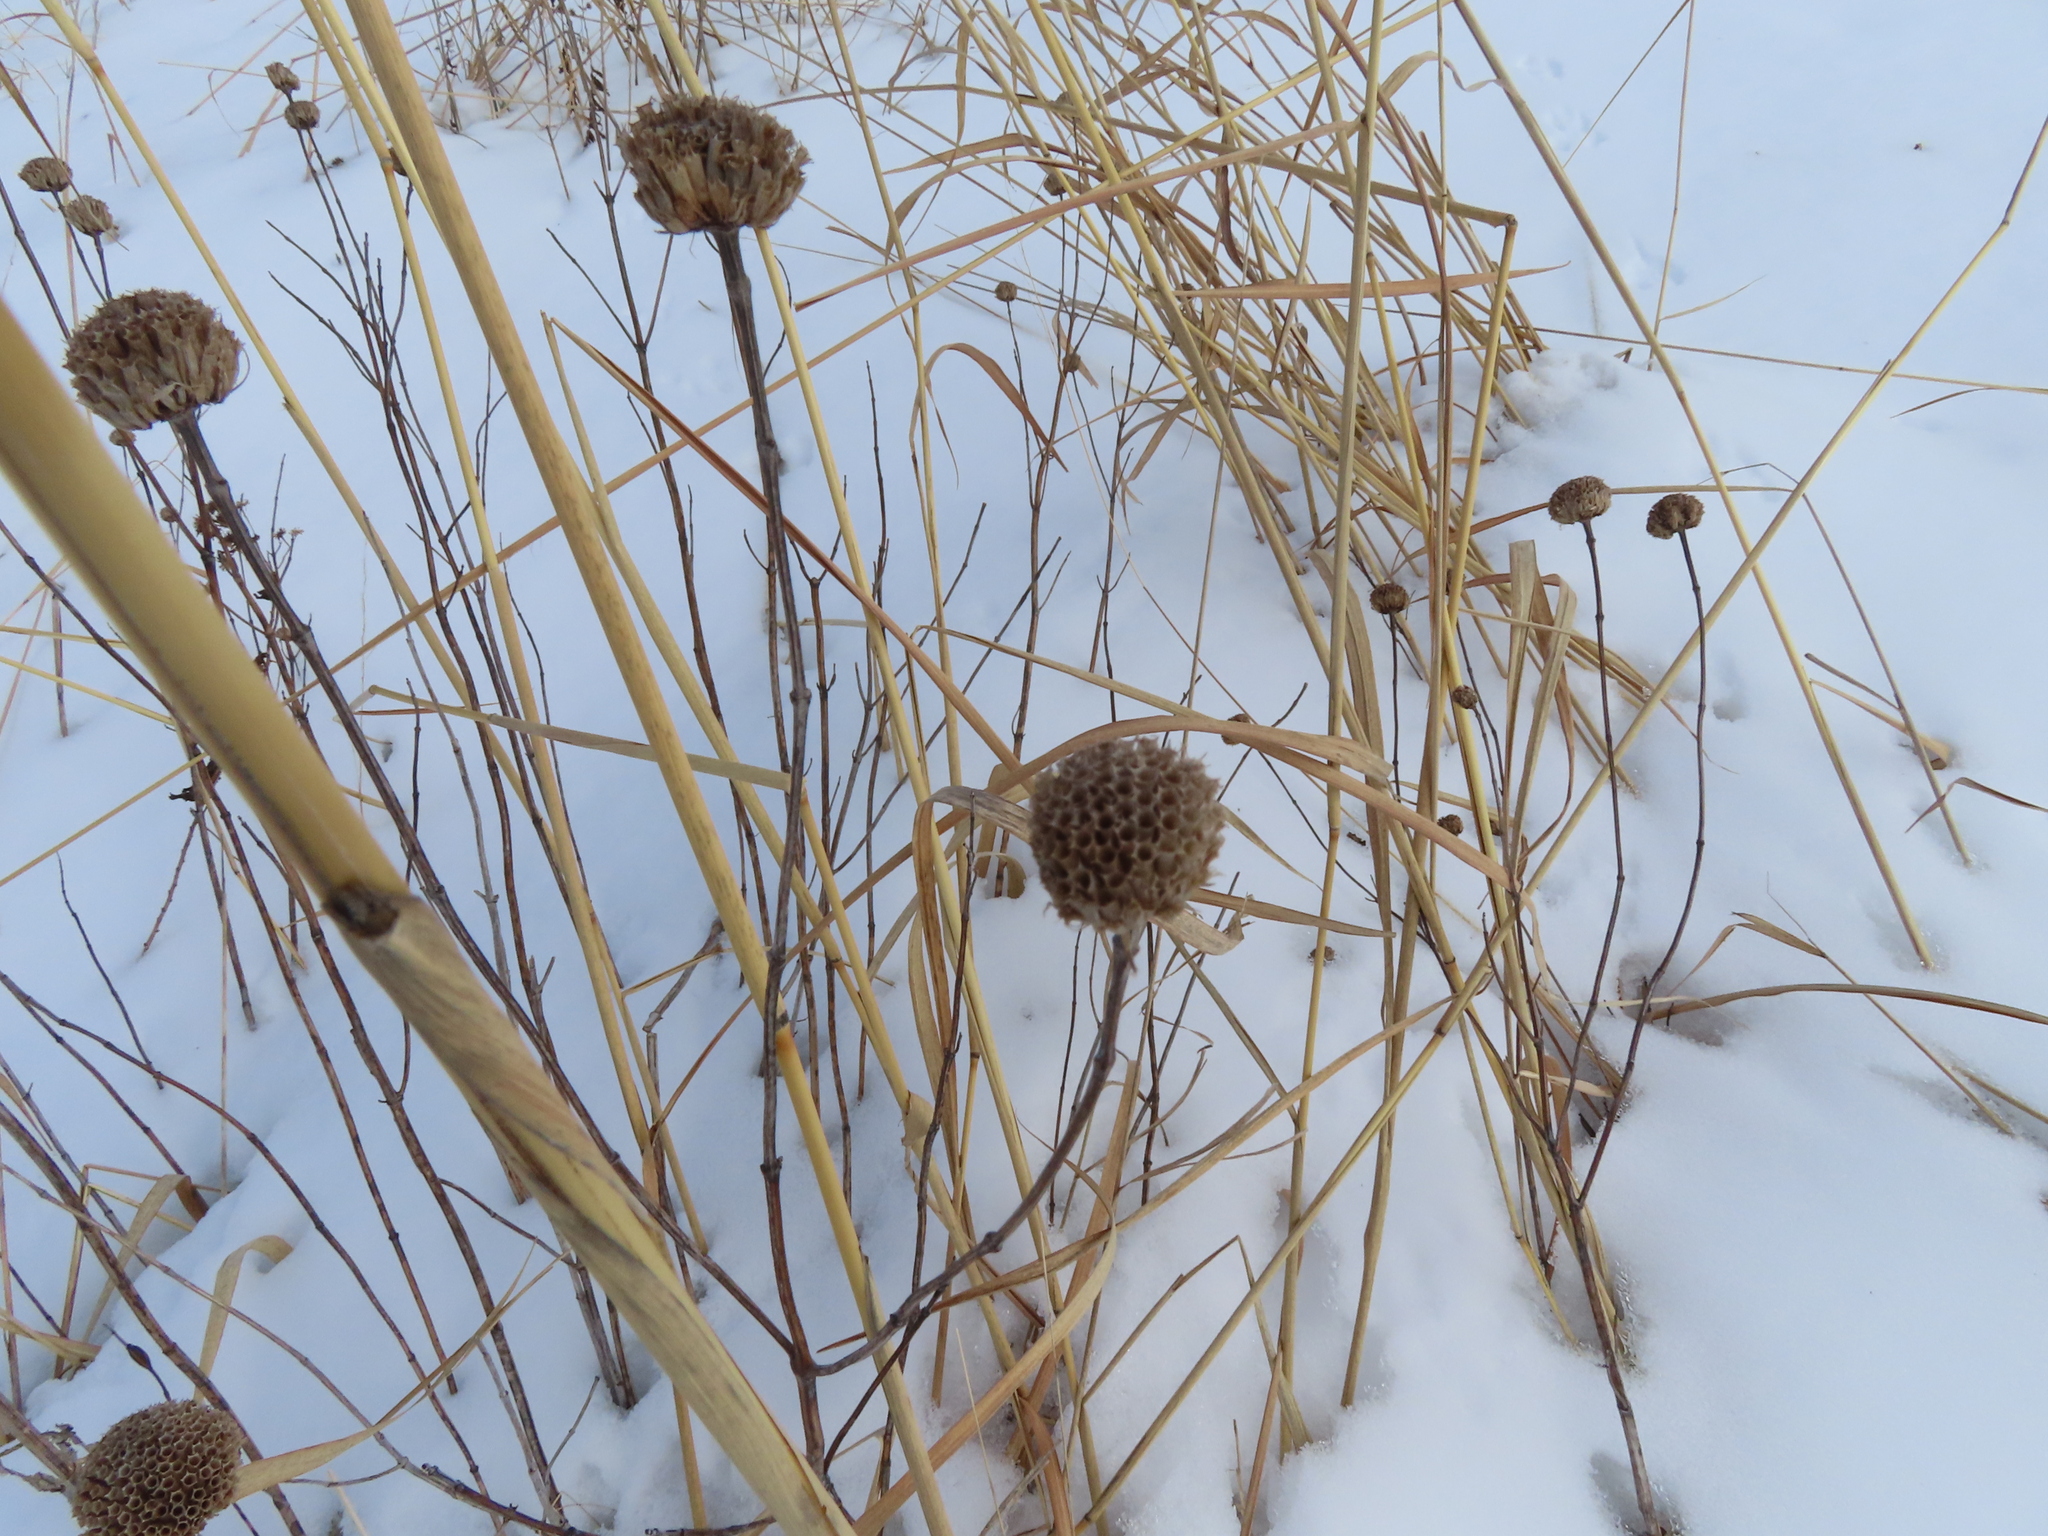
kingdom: Plantae
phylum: Tracheophyta
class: Magnoliopsida
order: Lamiales
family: Lamiaceae
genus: Monarda
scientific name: Monarda fistulosa
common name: Purple beebalm
